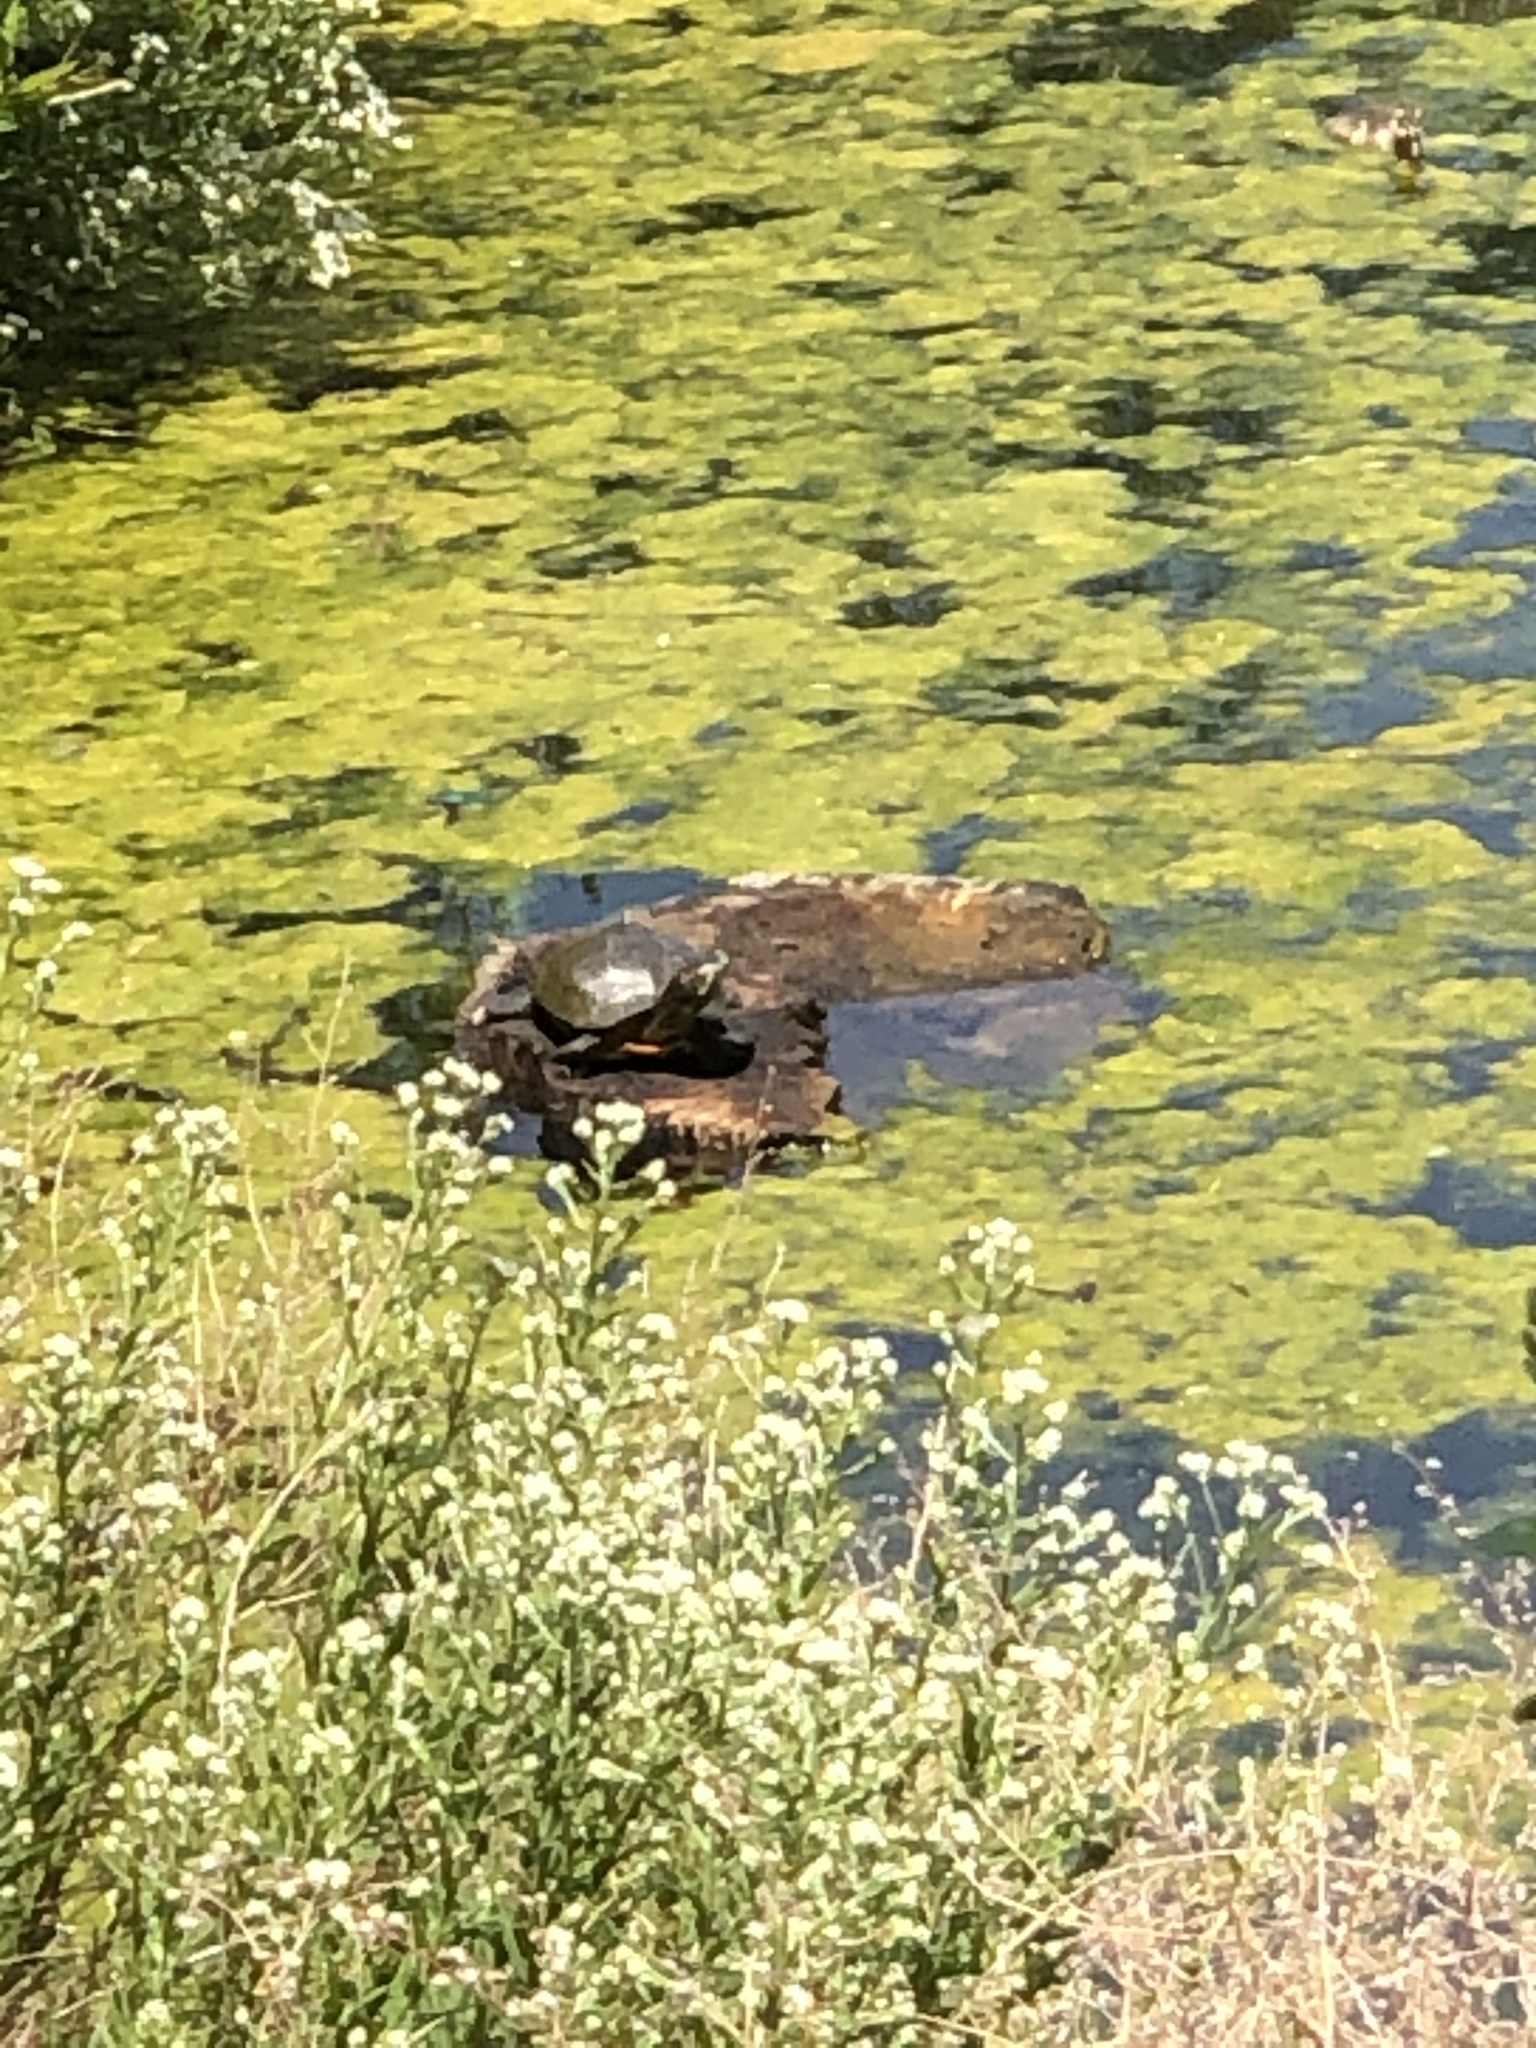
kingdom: Animalia
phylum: Chordata
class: Testudines
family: Emydidae
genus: Trachemys
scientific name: Trachemys scripta
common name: Slider
